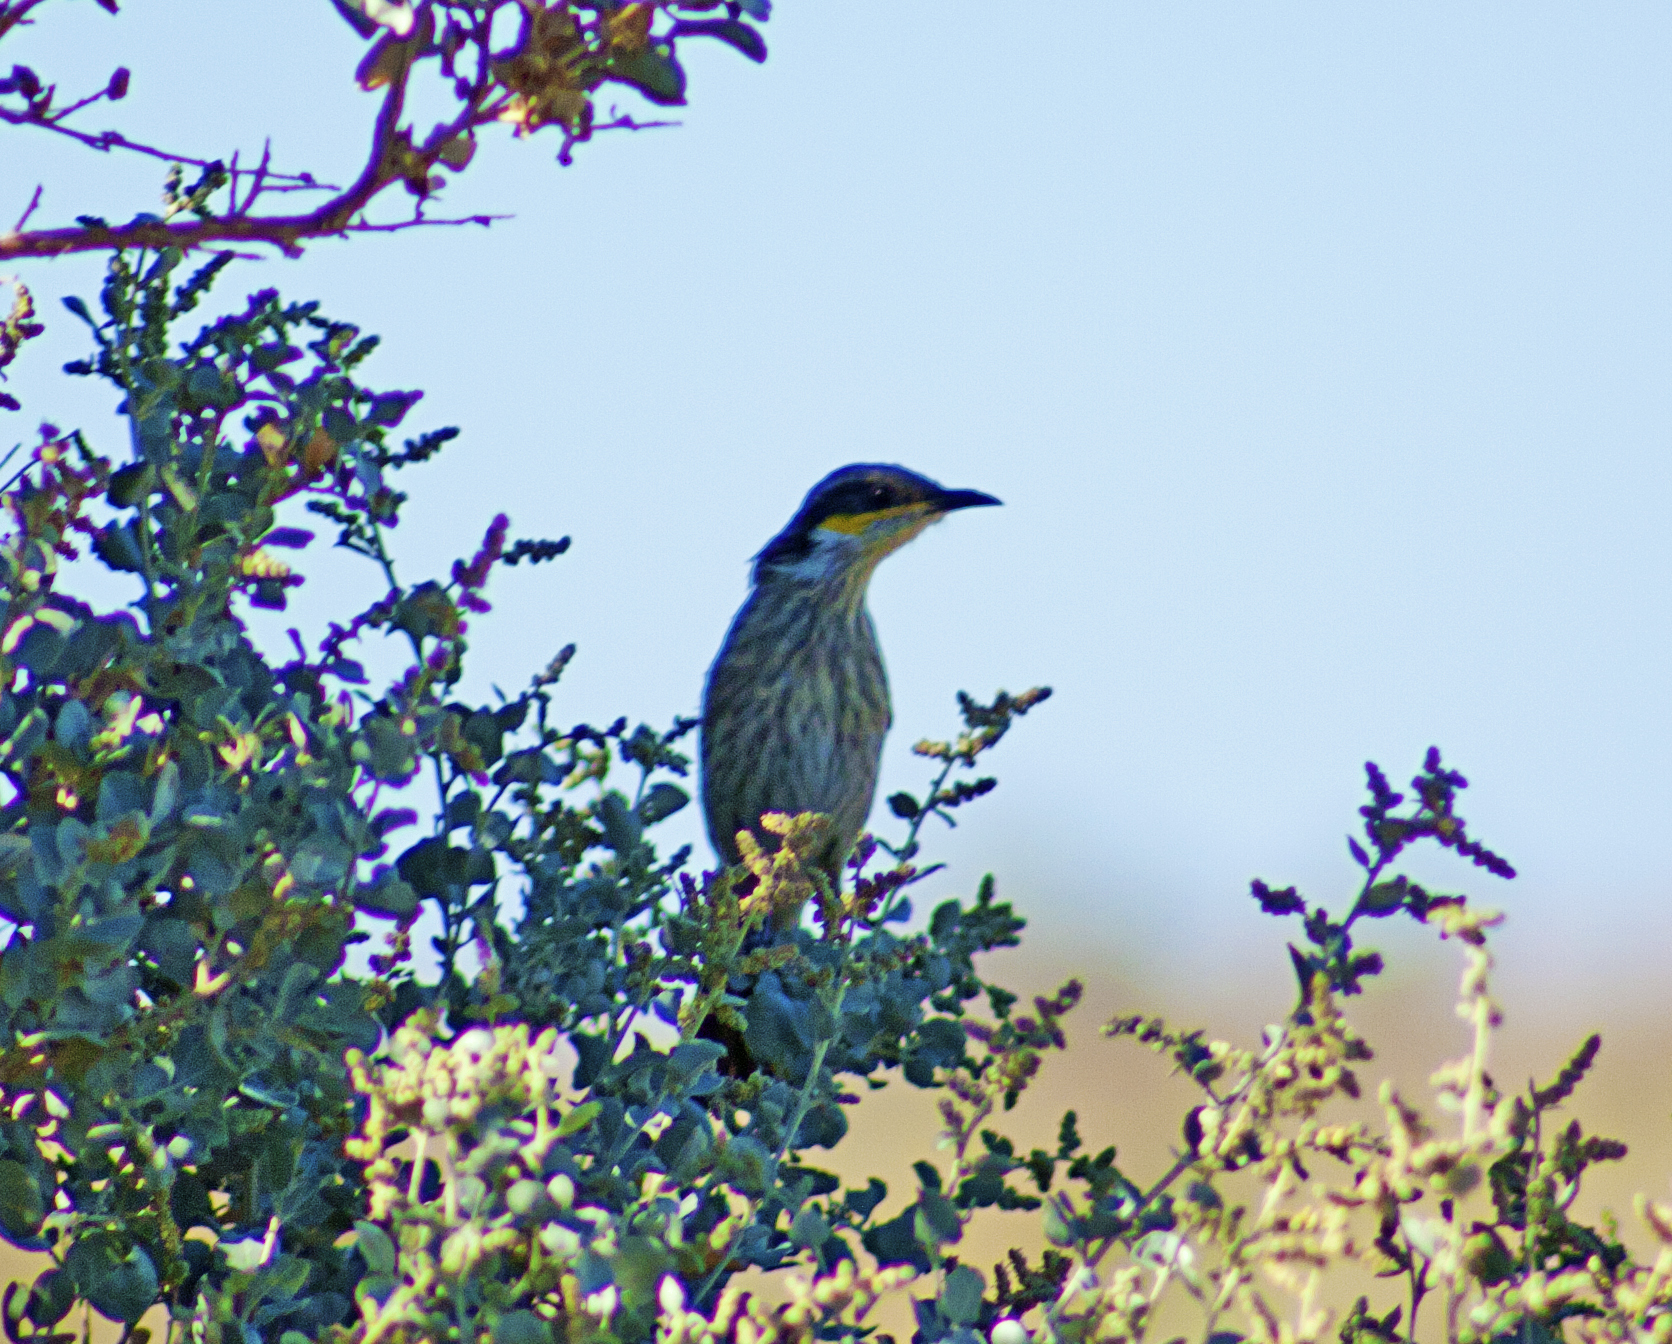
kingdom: Animalia
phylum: Chordata
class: Aves
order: Passeriformes
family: Meliphagidae
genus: Gavicalis
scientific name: Gavicalis virescens
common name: Singing honeyeater
